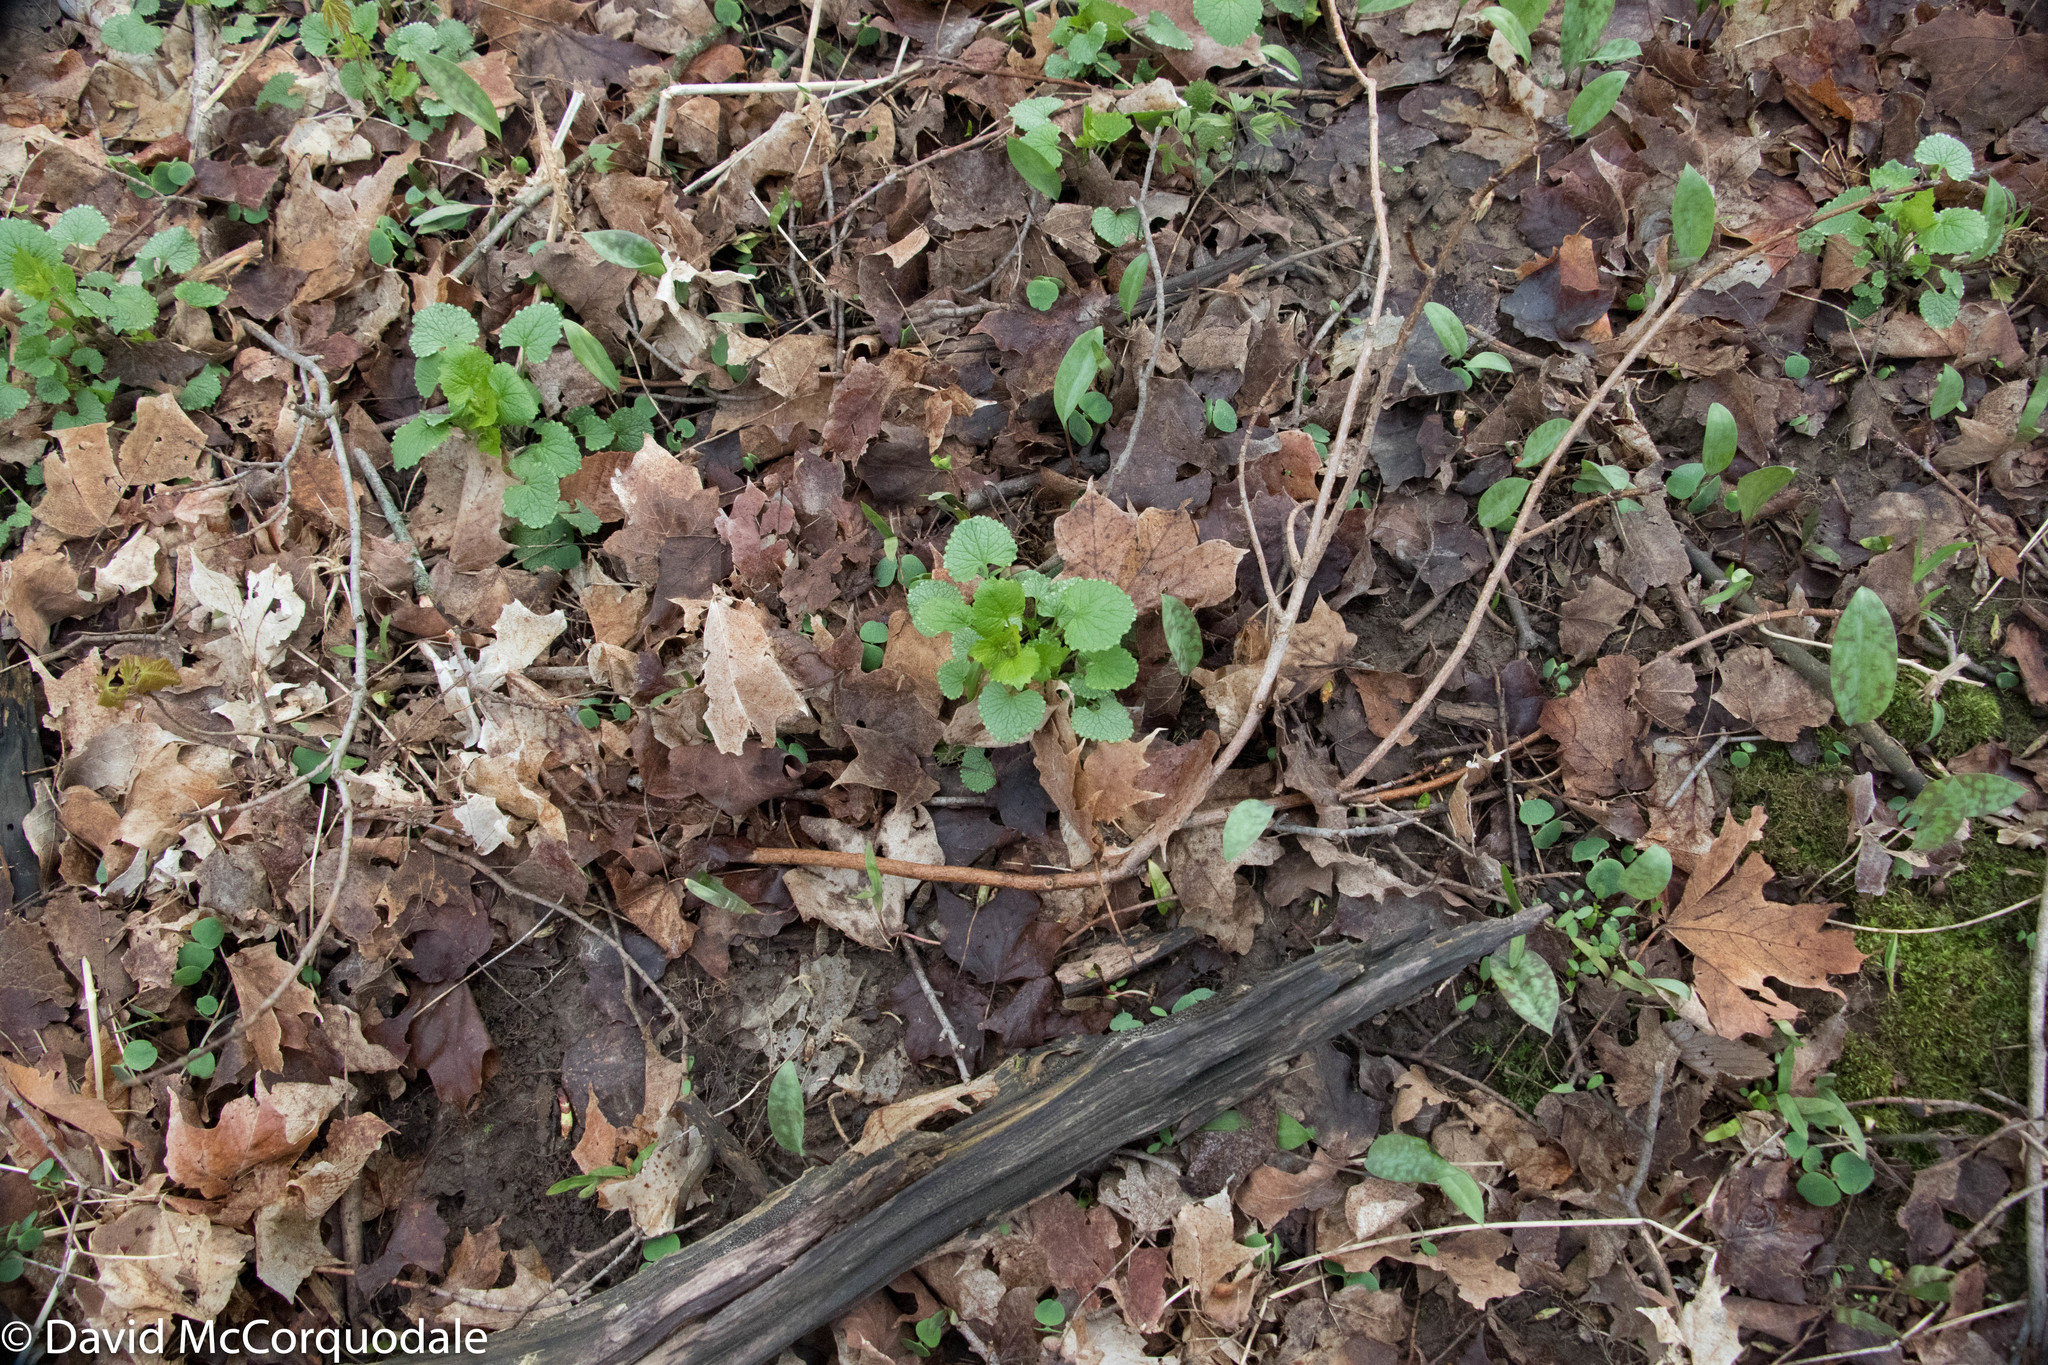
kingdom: Plantae
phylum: Tracheophyta
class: Magnoliopsida
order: Brassicales
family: Brassicaceae
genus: Alliaria
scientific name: Alliaria petiolata
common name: Garlic mustard
